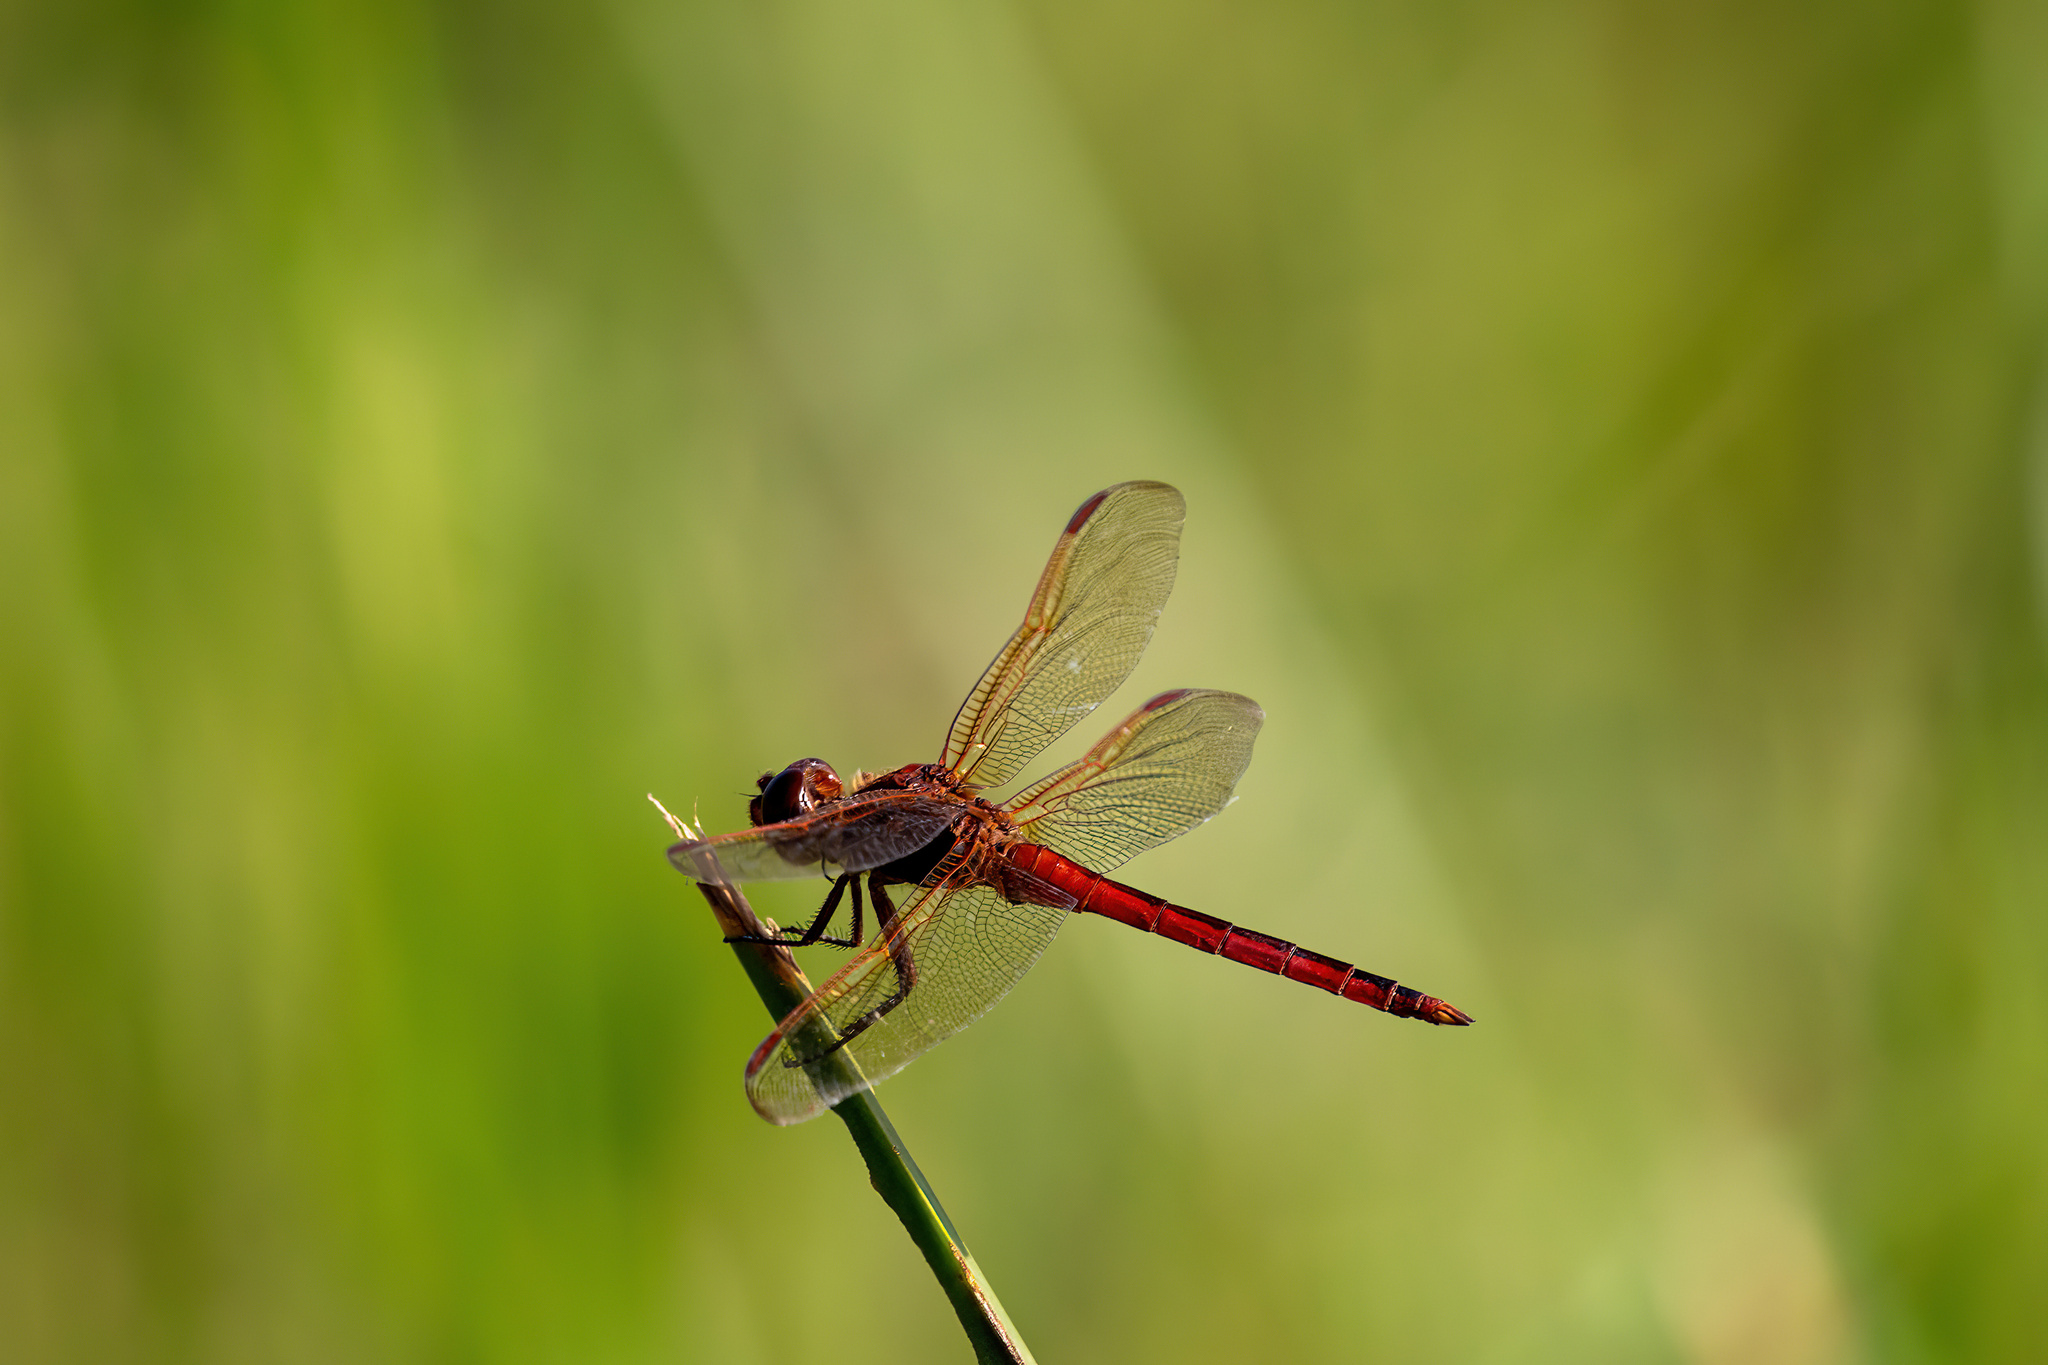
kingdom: Animalia
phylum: Arthropoda
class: Insecta
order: Odonata
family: Libellulidae
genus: Libellula
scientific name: Libellula needhami
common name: Needham's skimmer
